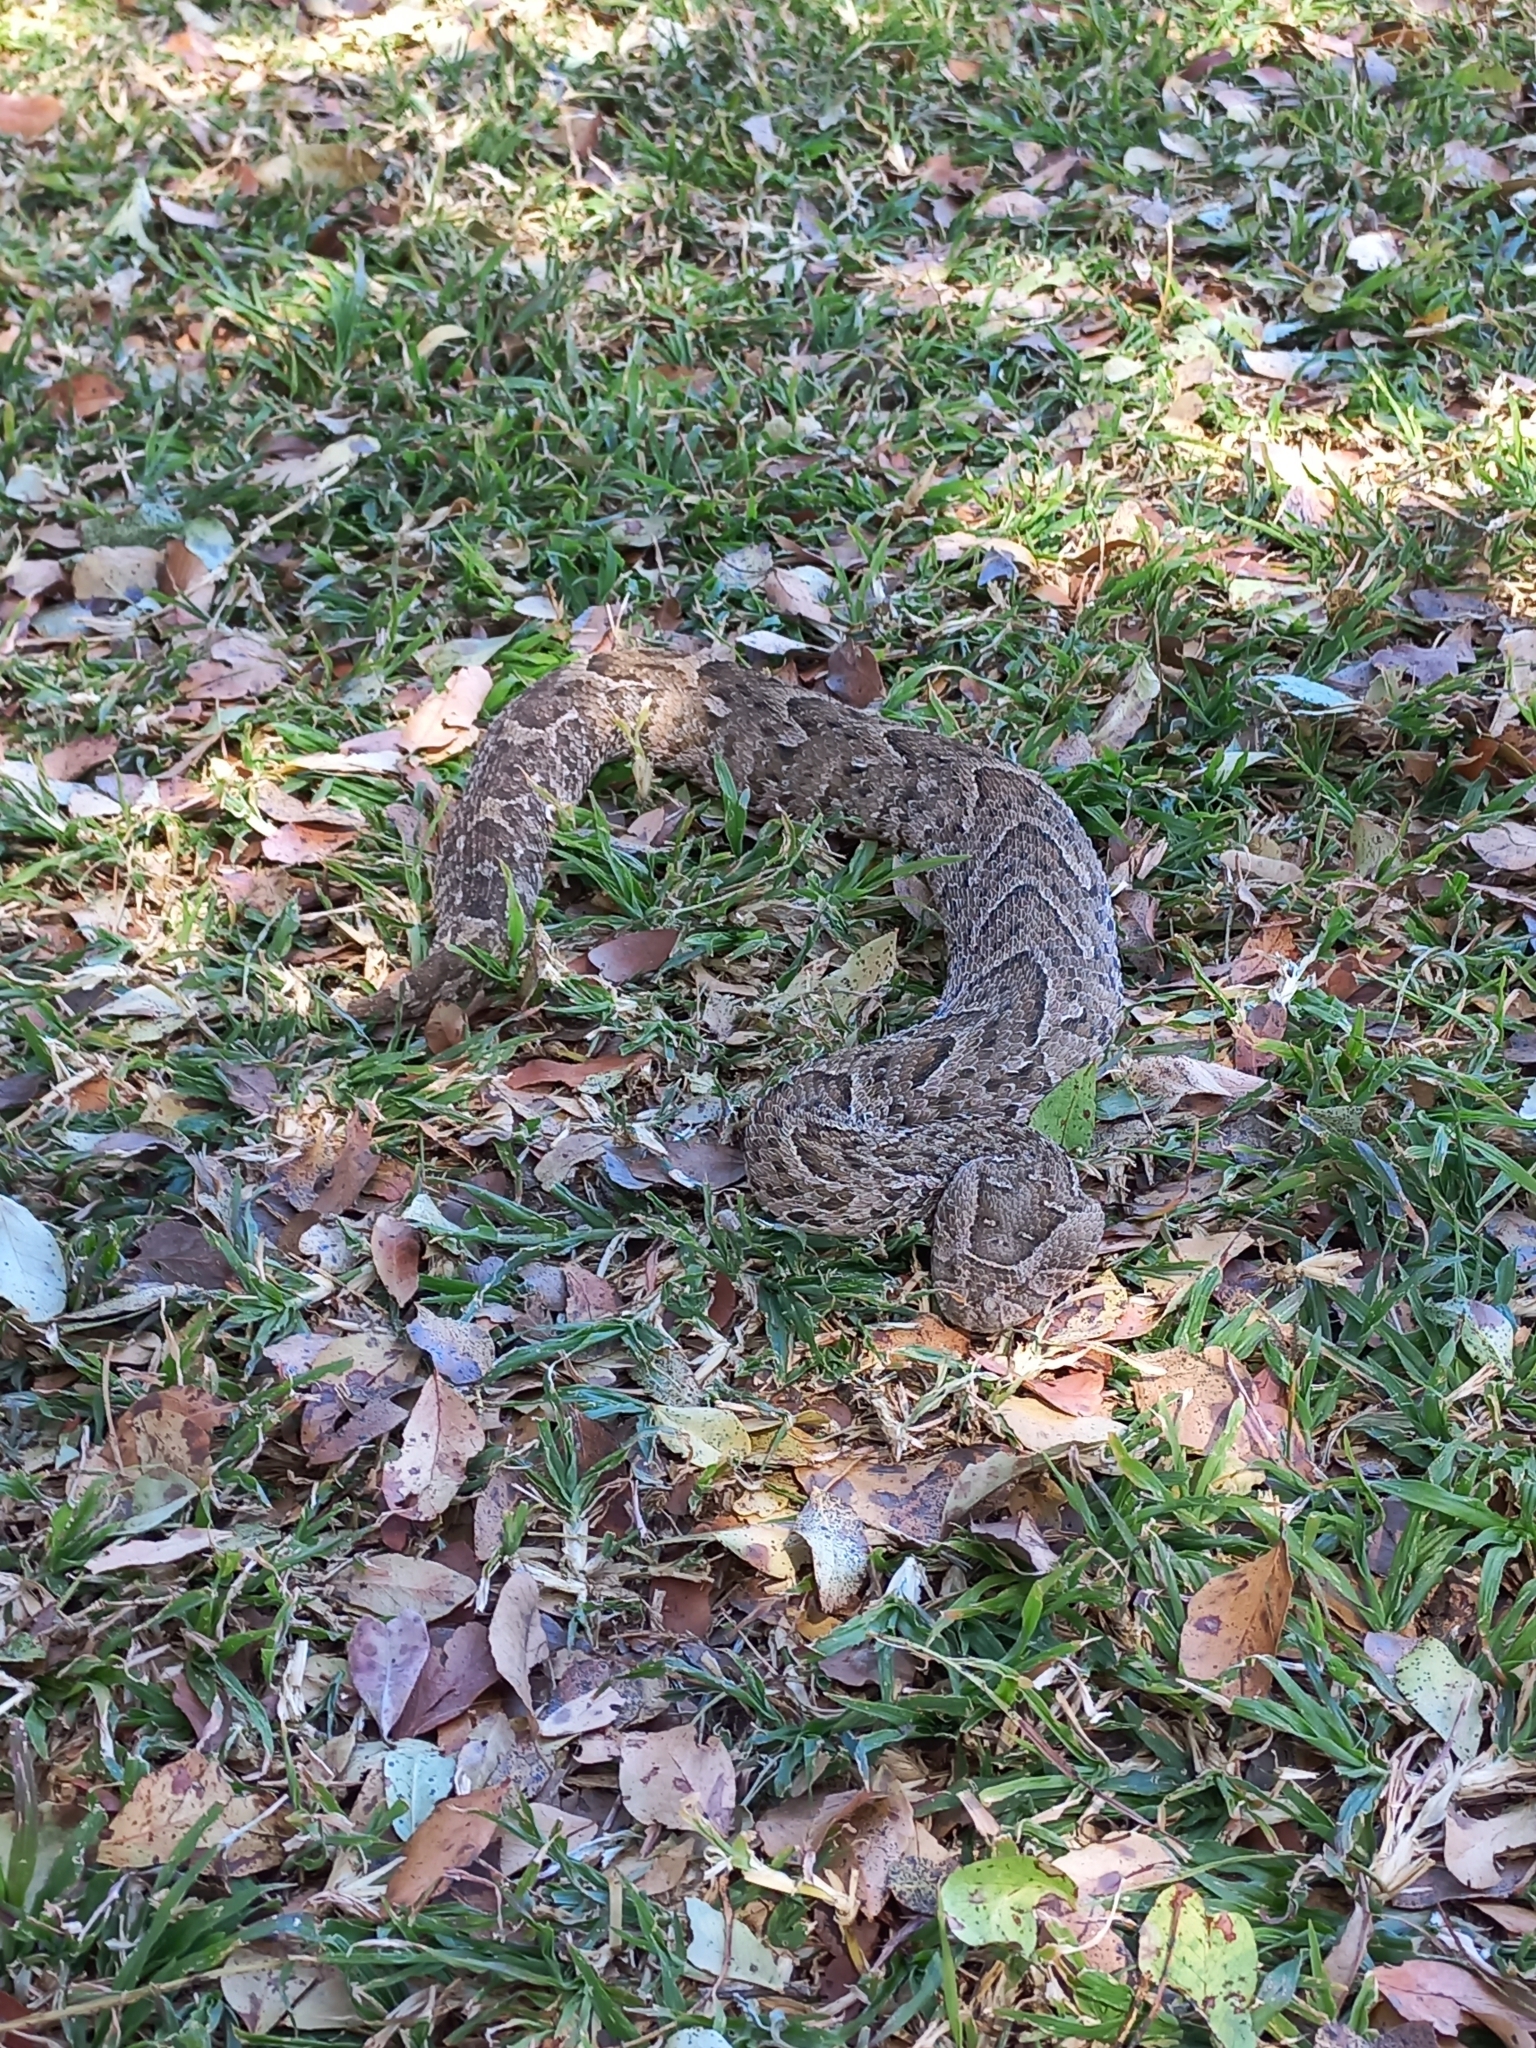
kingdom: Animalia
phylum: Chordata
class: Squamata
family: Viperidae
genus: Bitis
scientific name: Bitis arietans
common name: Puff adder
